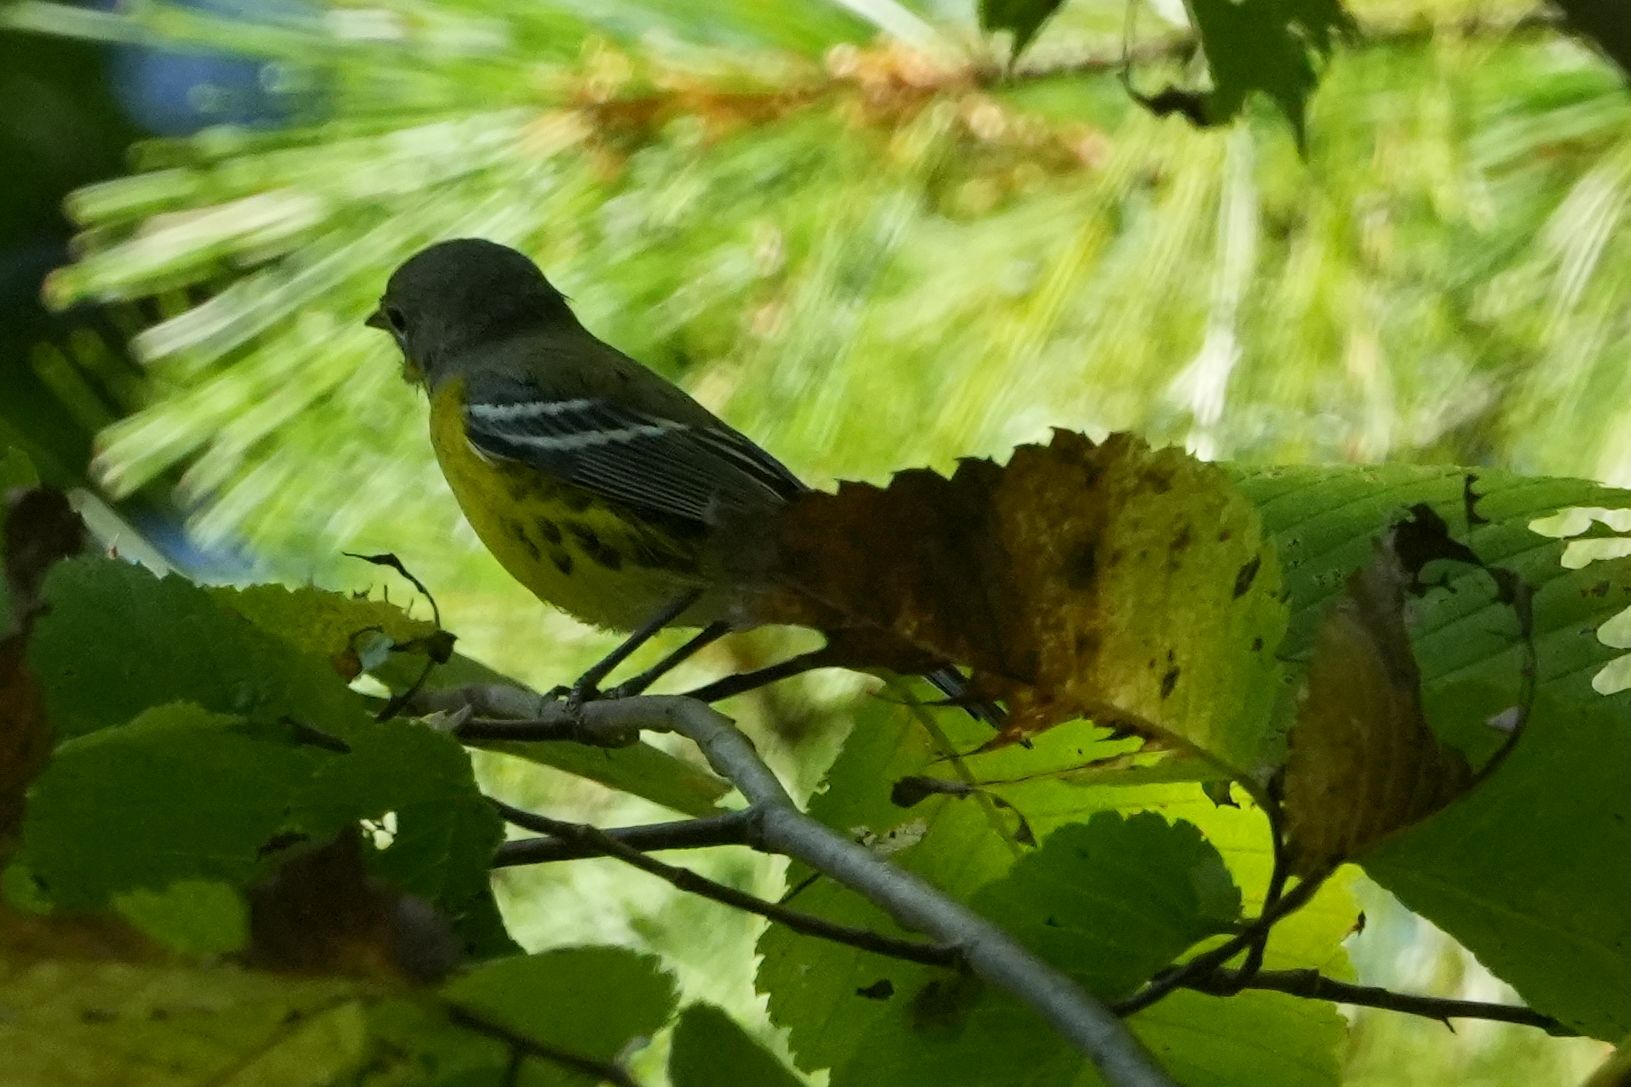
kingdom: Animalia
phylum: Chordata
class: Aves
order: Passeriformes
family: Parulidae
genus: Setophaga
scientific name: Setophaga magnolia
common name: Magnolia warbler
